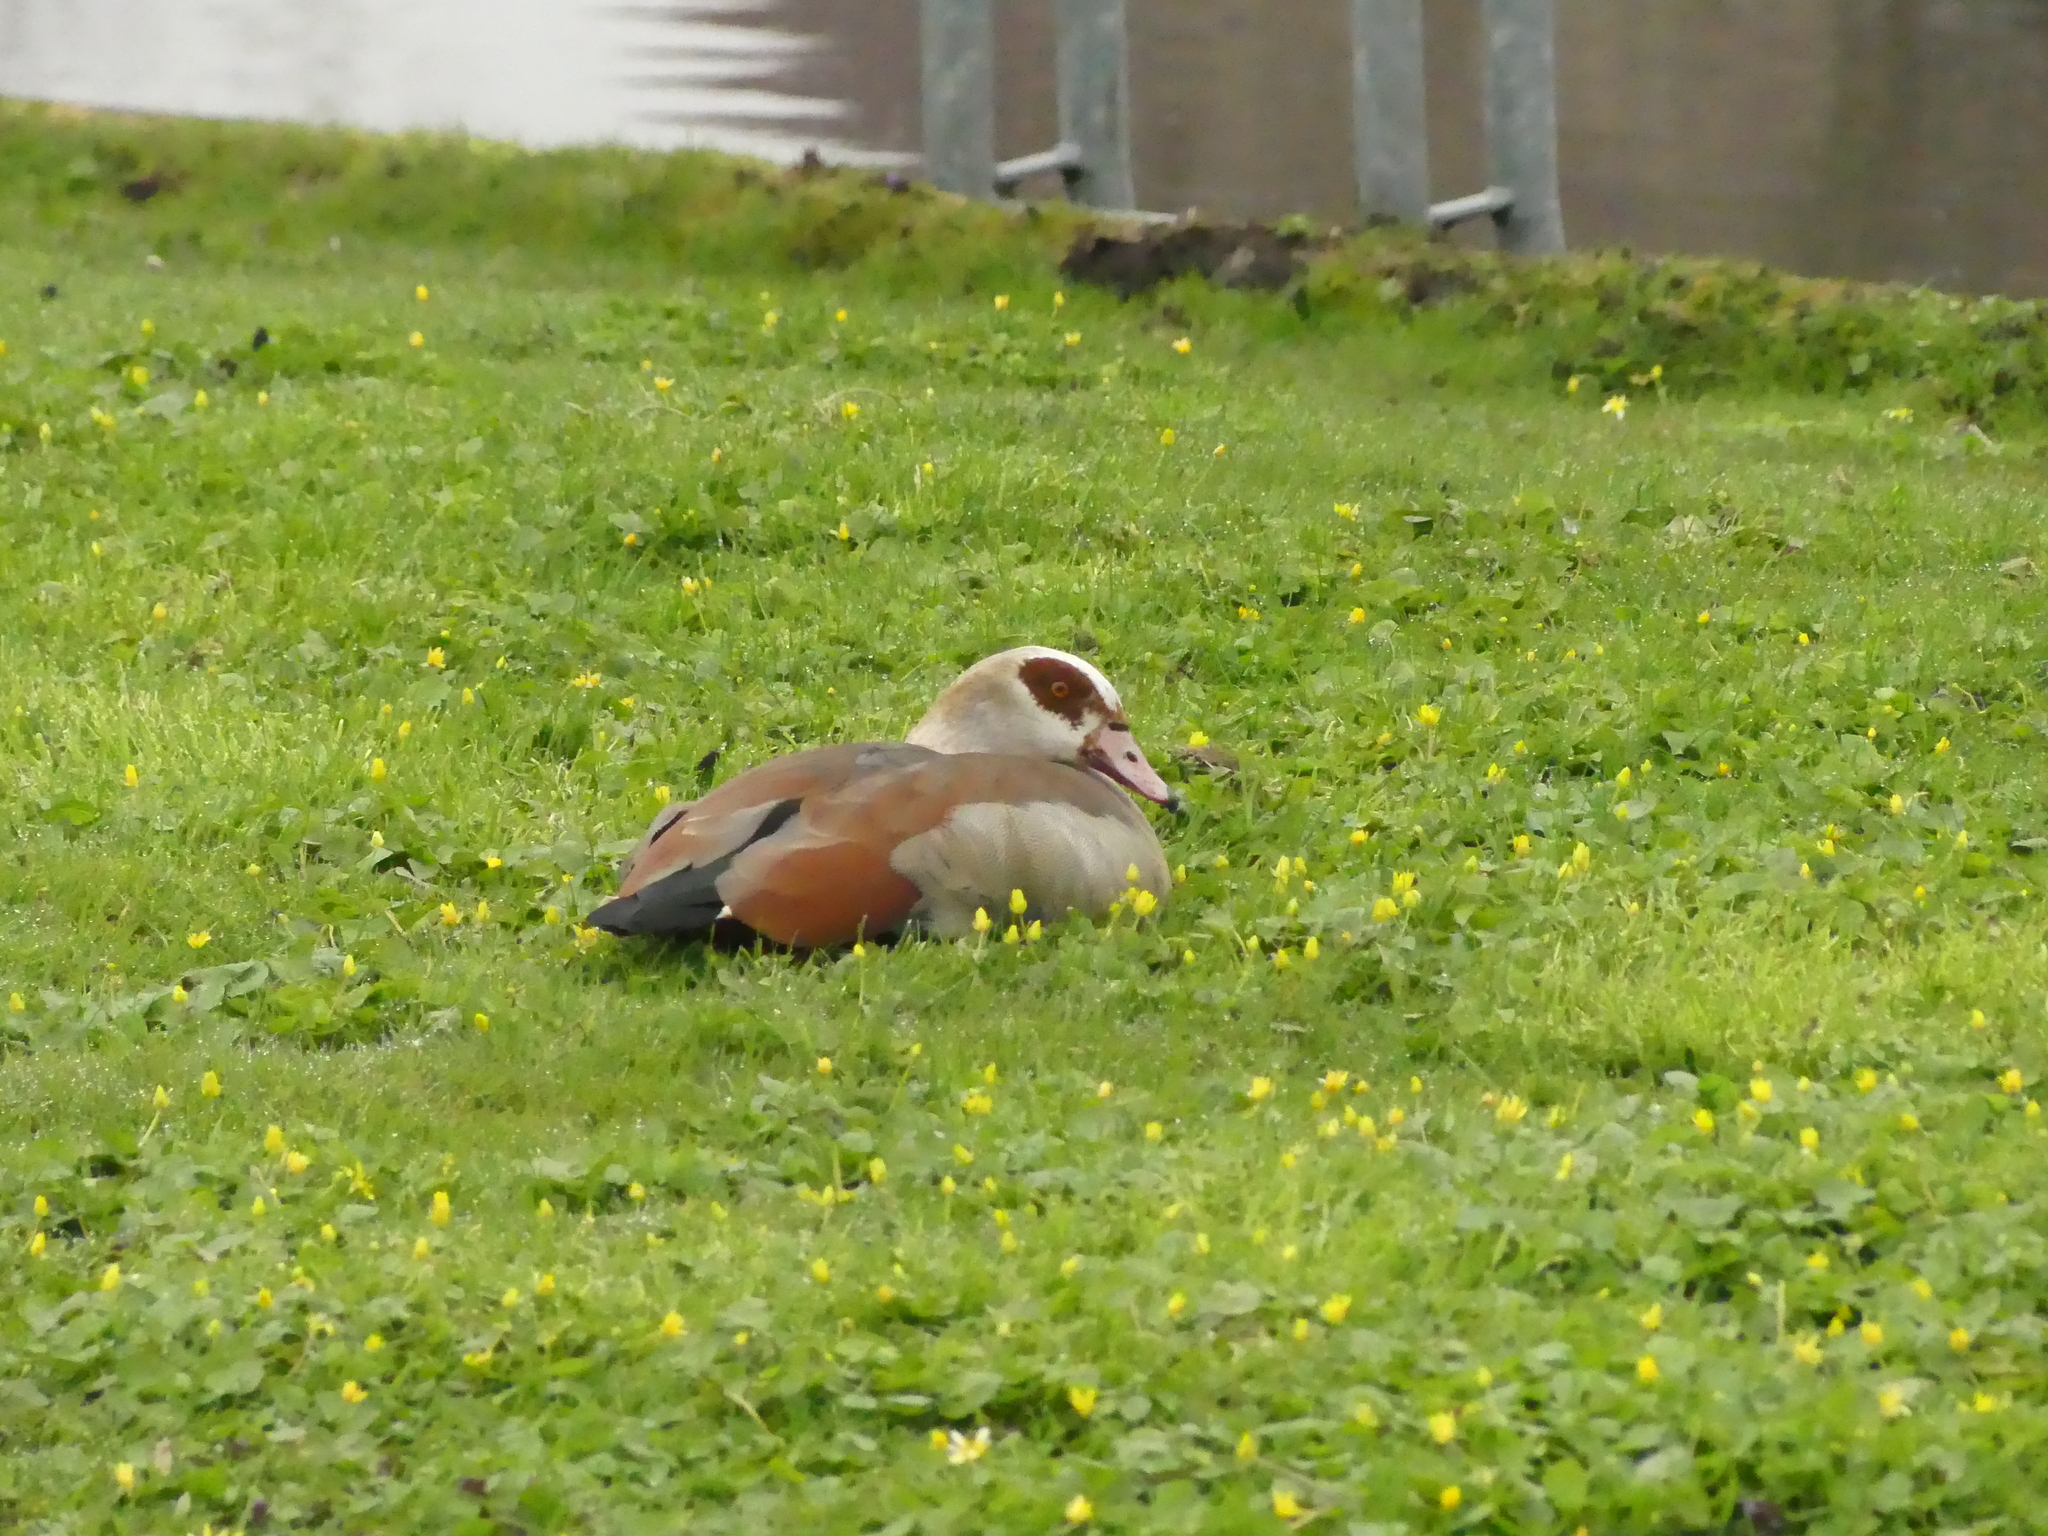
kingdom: Animalia
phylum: Chordata
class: Aves
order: Anseriformes
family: Anatidae
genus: Alopochen
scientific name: Alopochen aegyptiaca
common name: Egyptian goose
